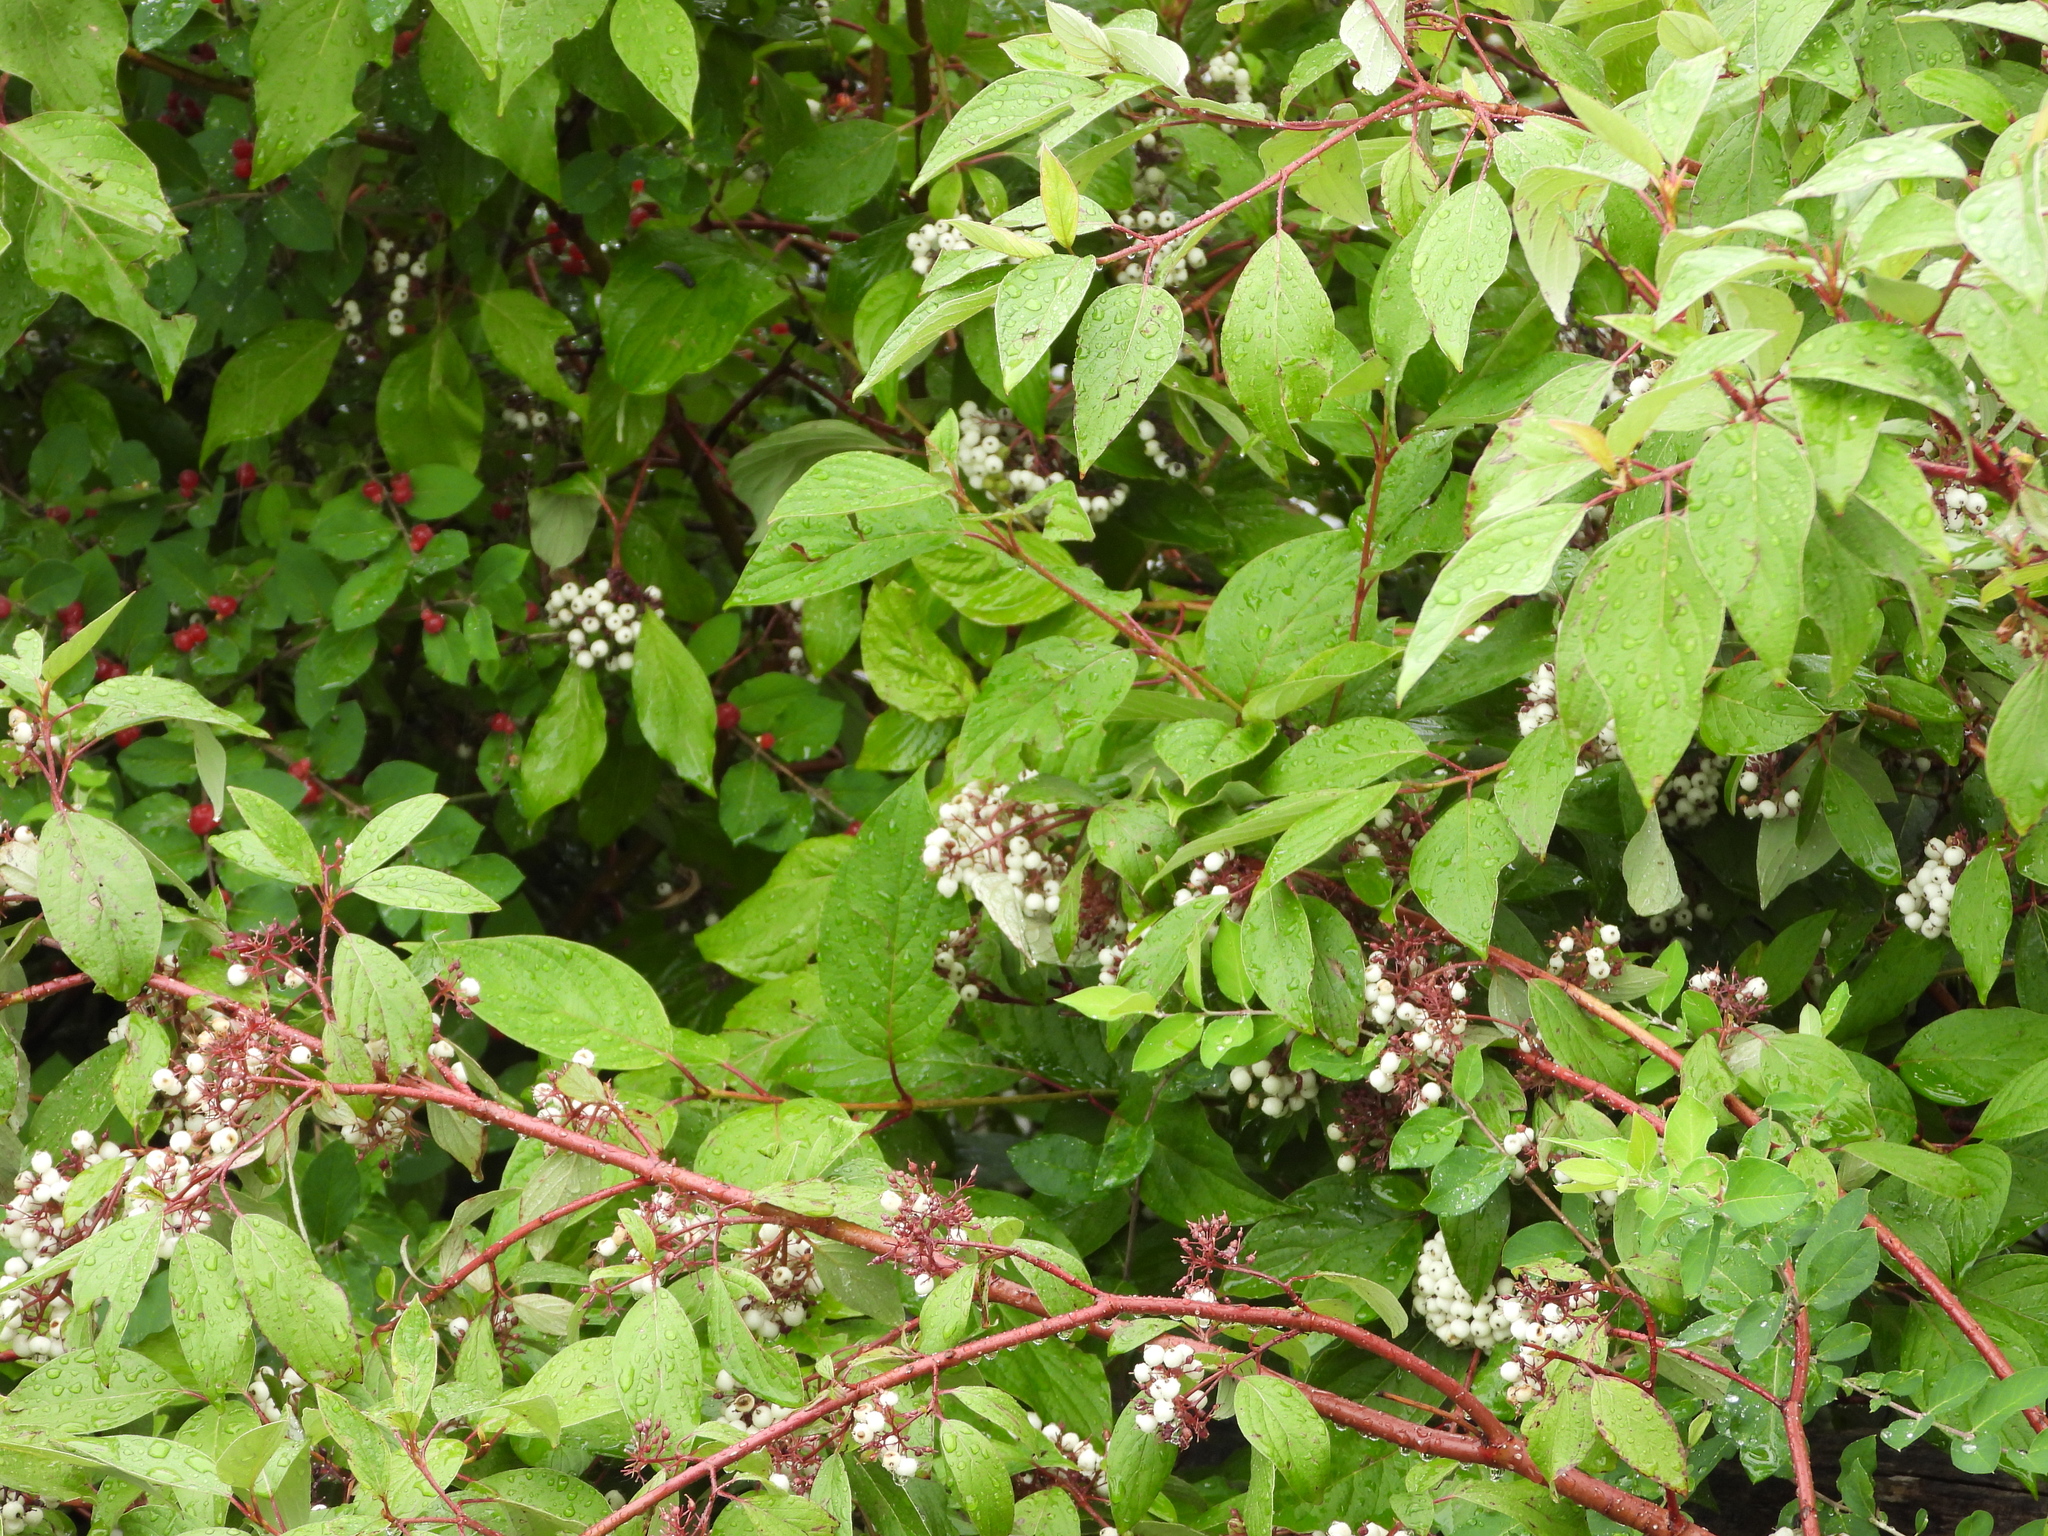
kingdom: Plantae
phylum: Tracheophyta
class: Magnoliopsida
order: Cornales
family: Cornaceae
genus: Cornus
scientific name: Cornus sericea
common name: Red-osier dogwood
